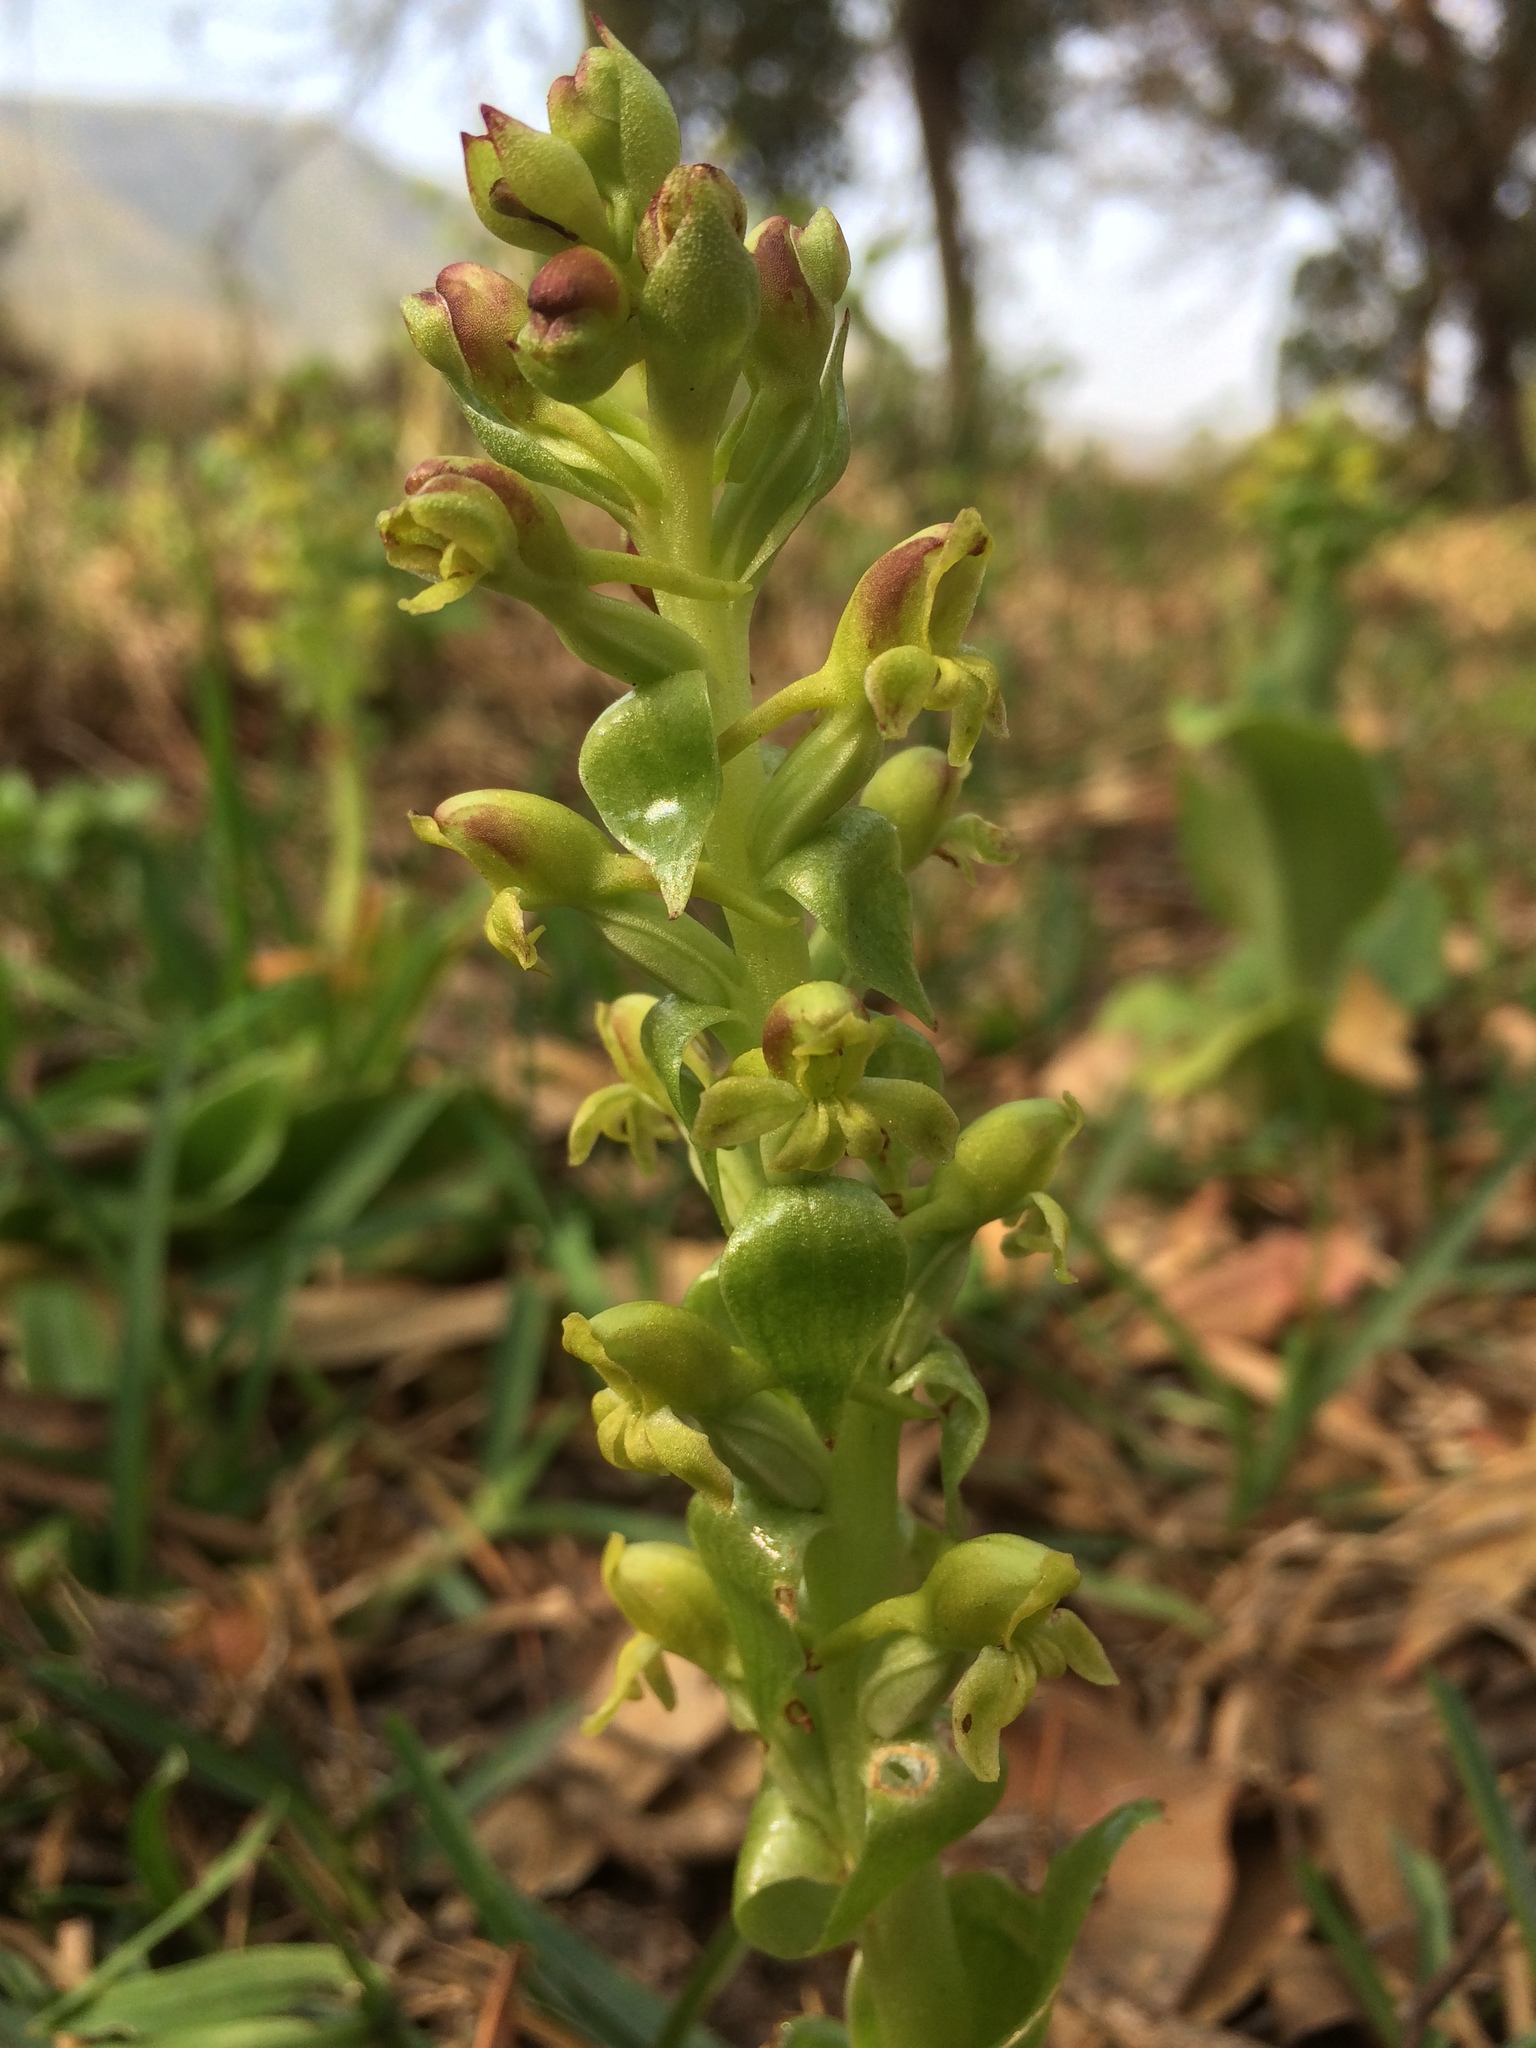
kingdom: Plantae
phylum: Tracheophyta
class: Liliopsida
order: Asparagales
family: Orchidaceae
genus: Satyrium
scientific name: Satyrium odorum
